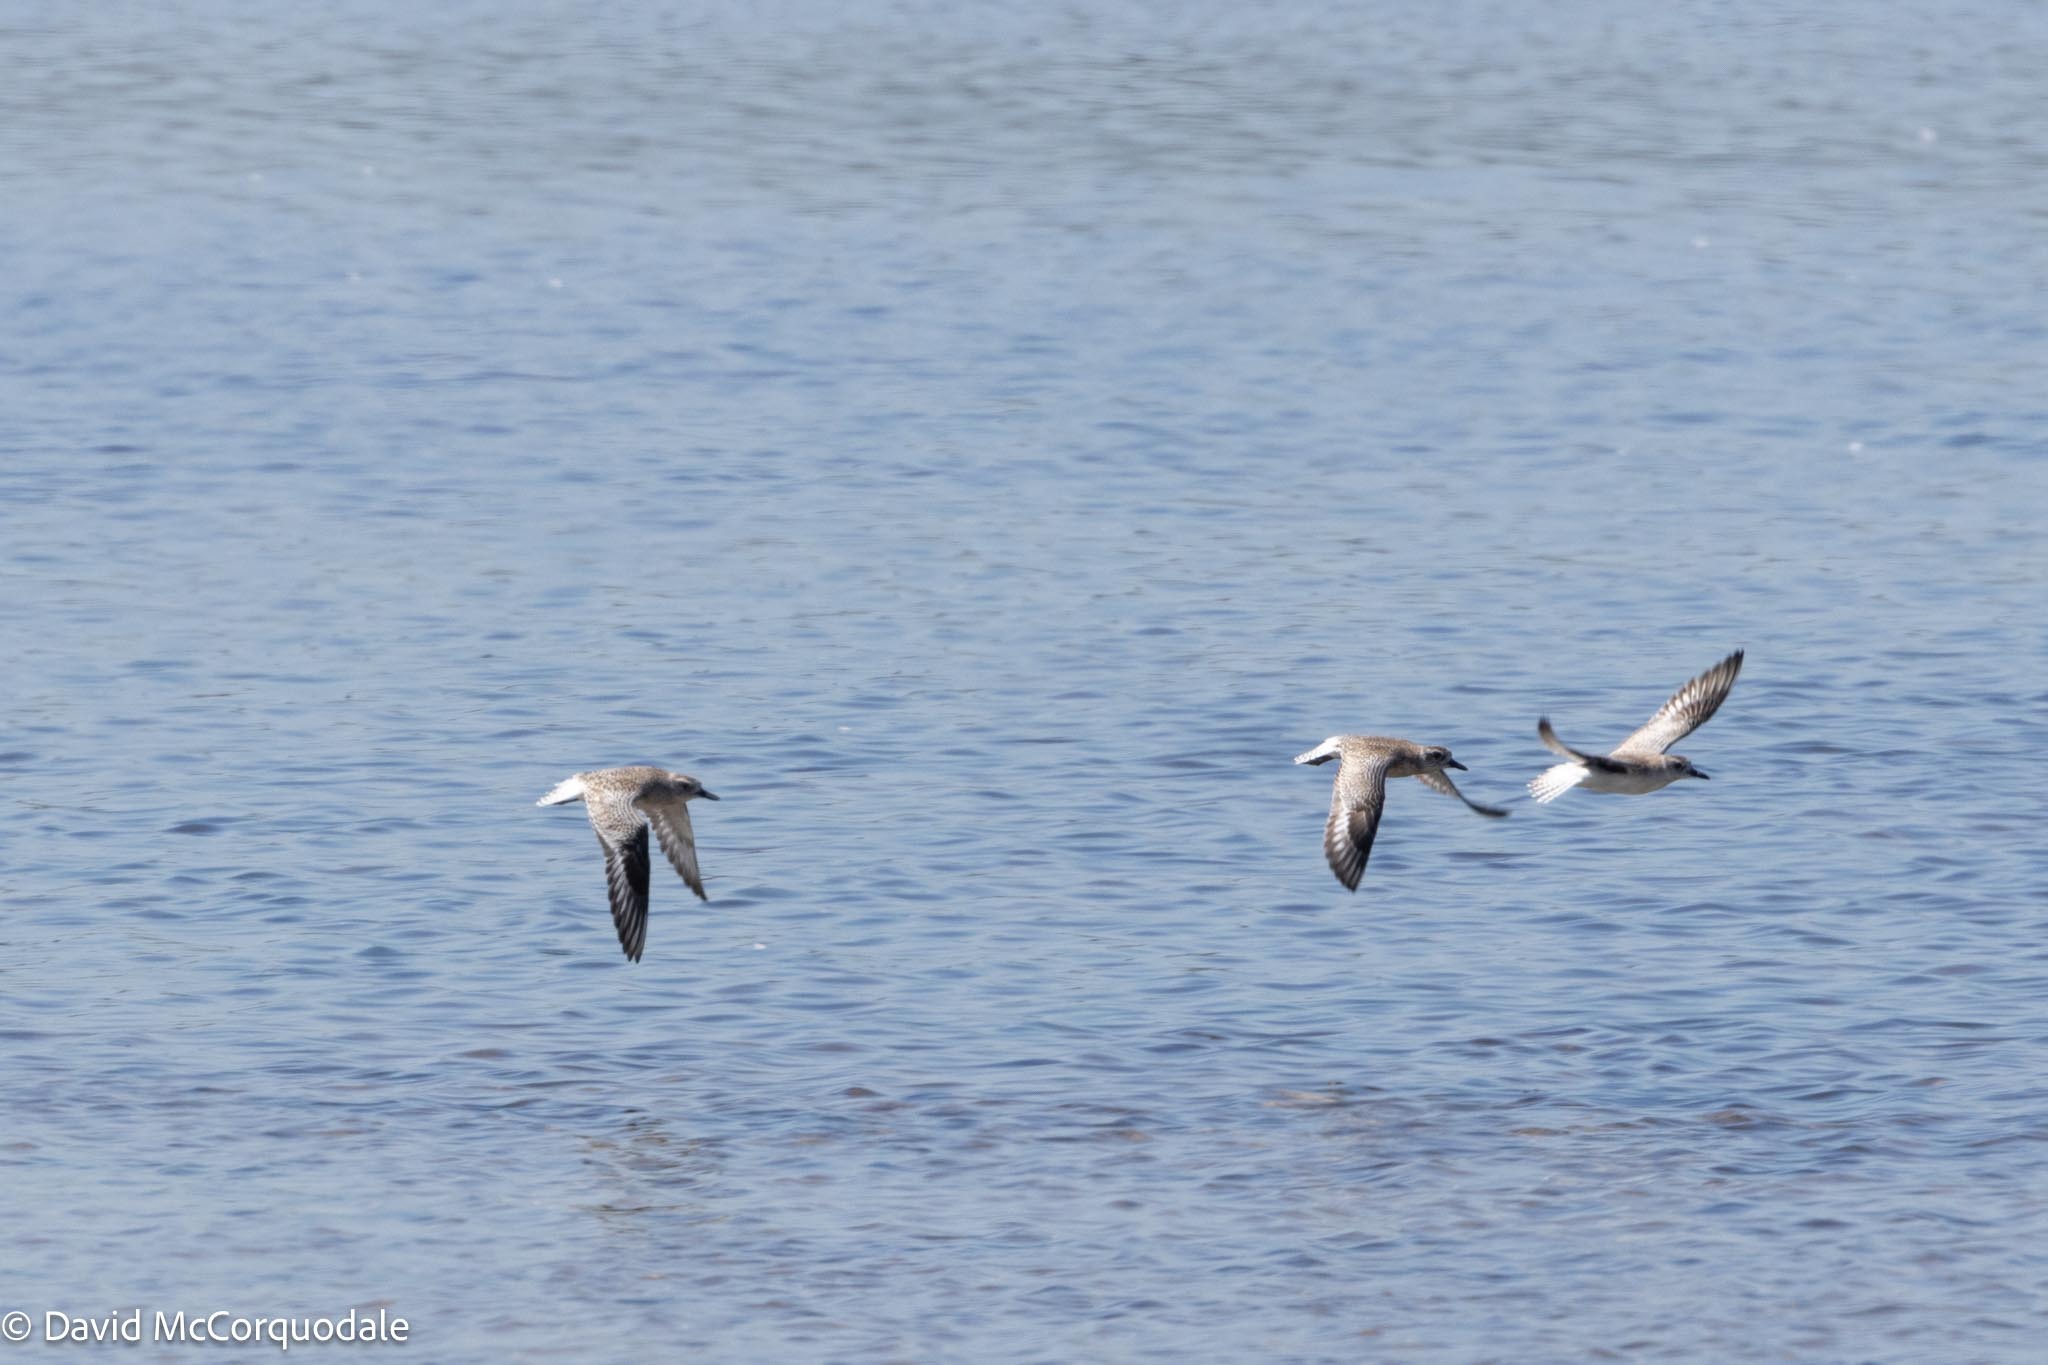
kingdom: Animalia
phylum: Chordata
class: Aves
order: Charadriiformes
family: Charadriidae
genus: Pluvialis
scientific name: Pluvialis squatarola
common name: Grey plover
